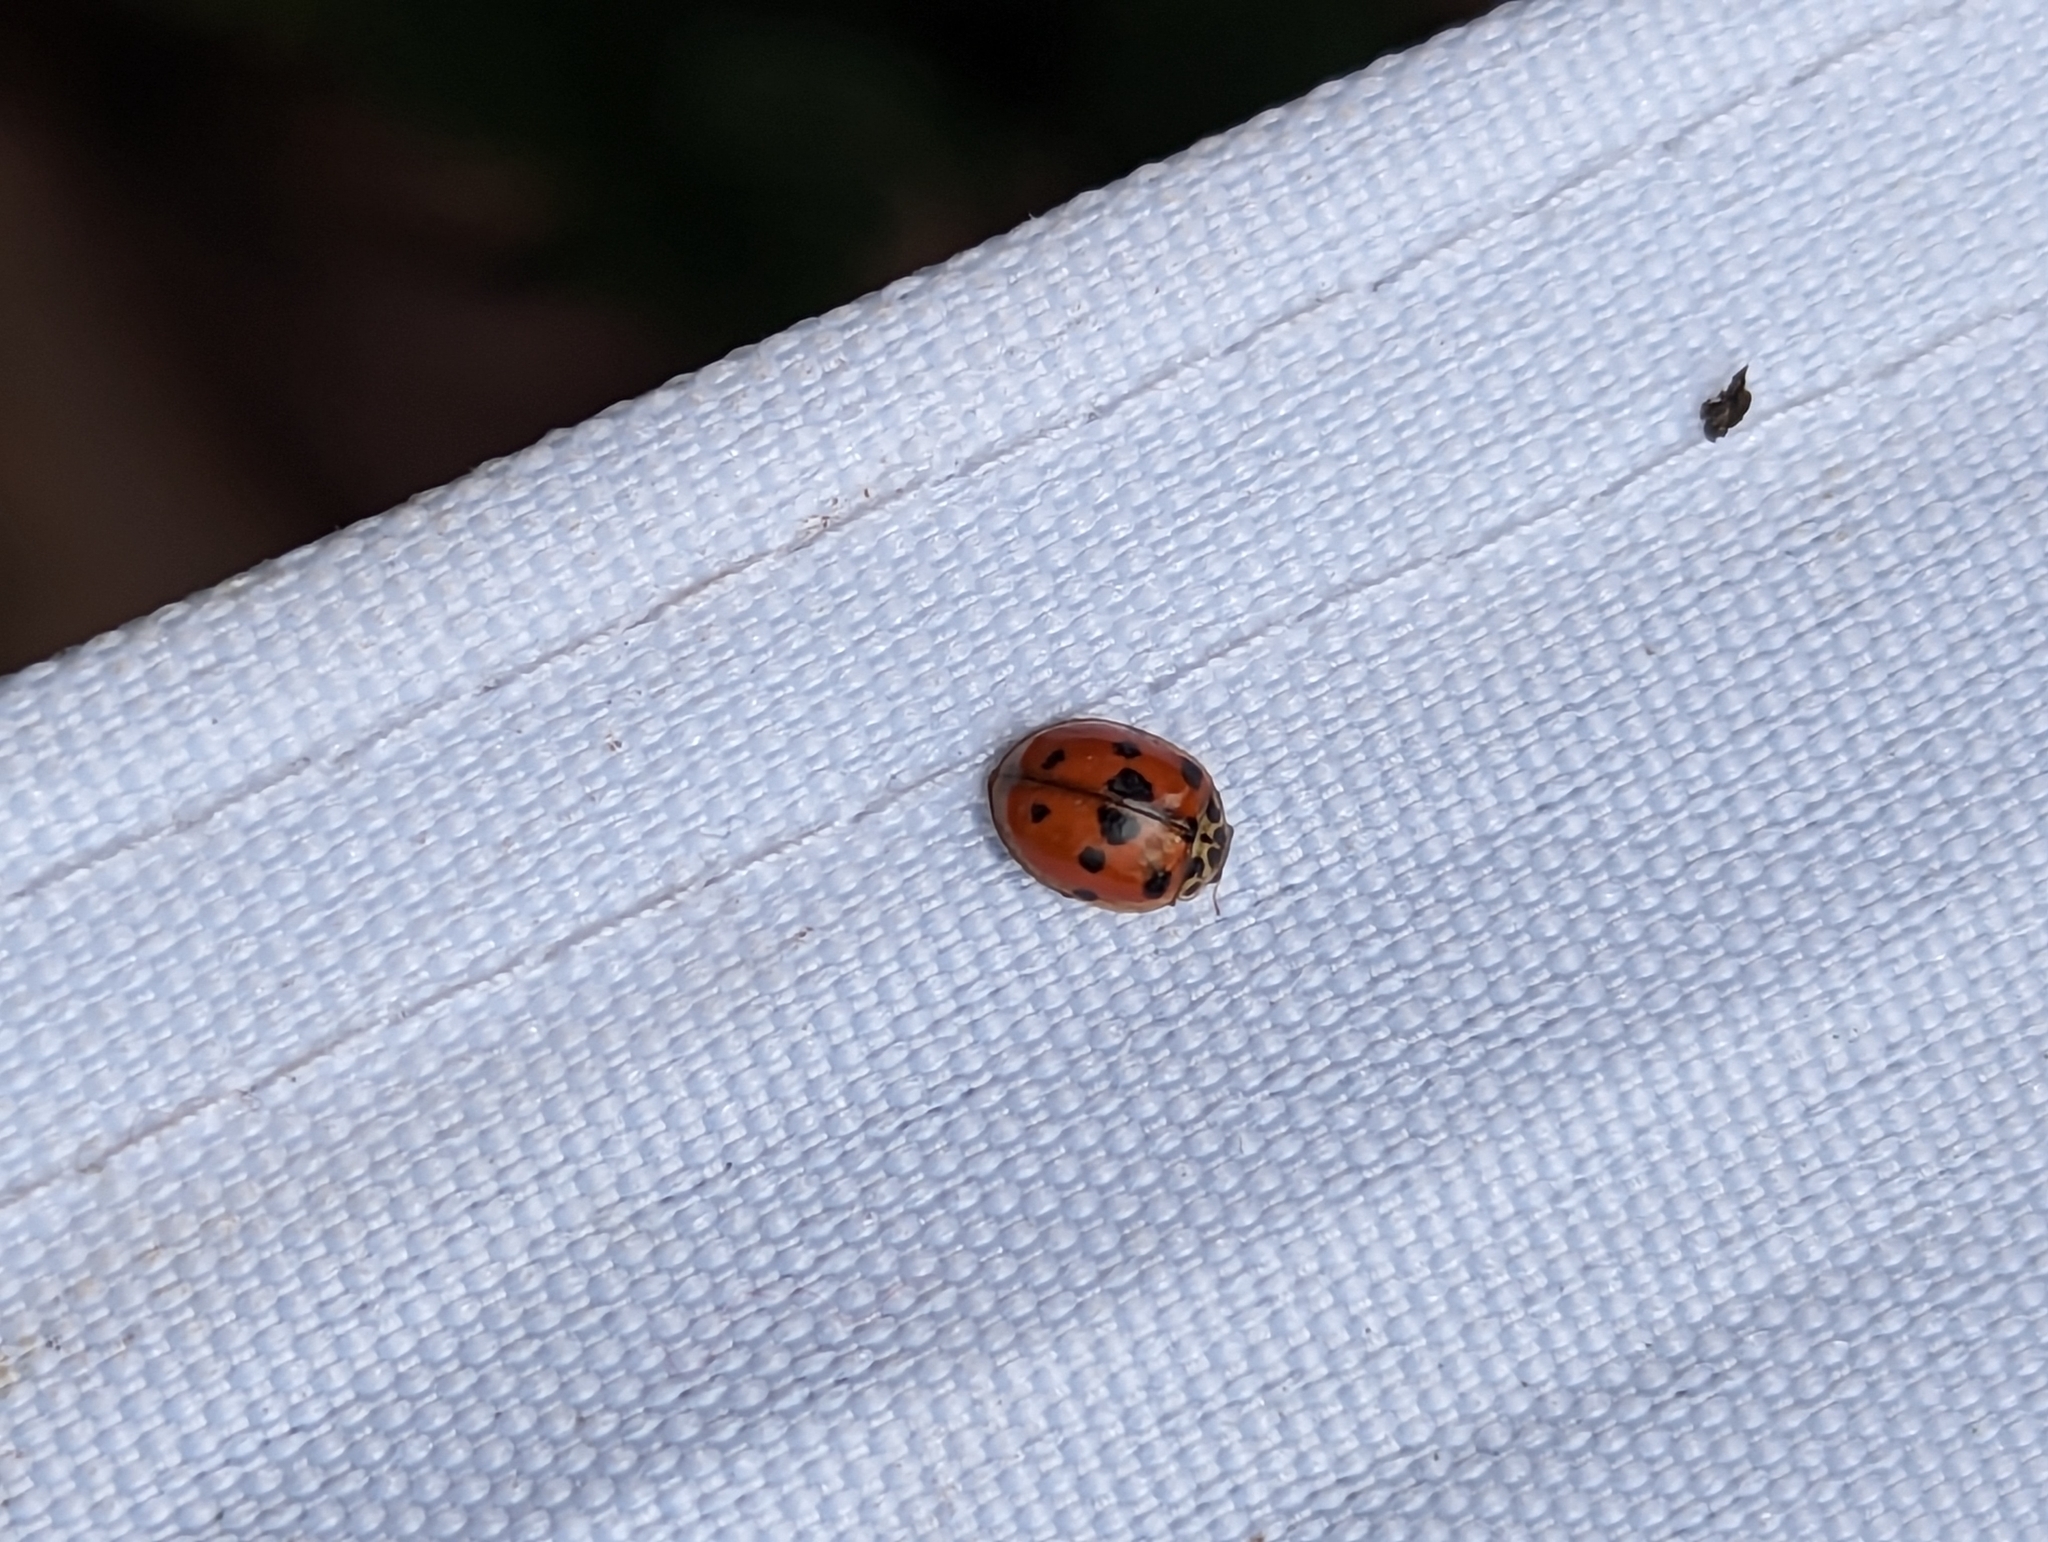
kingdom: Animalia
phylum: Arthropoda
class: Insecta
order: Coleoptera
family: Coccinellidae
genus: Adalia
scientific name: Adalia decempunctata
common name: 10-spot ladybird
